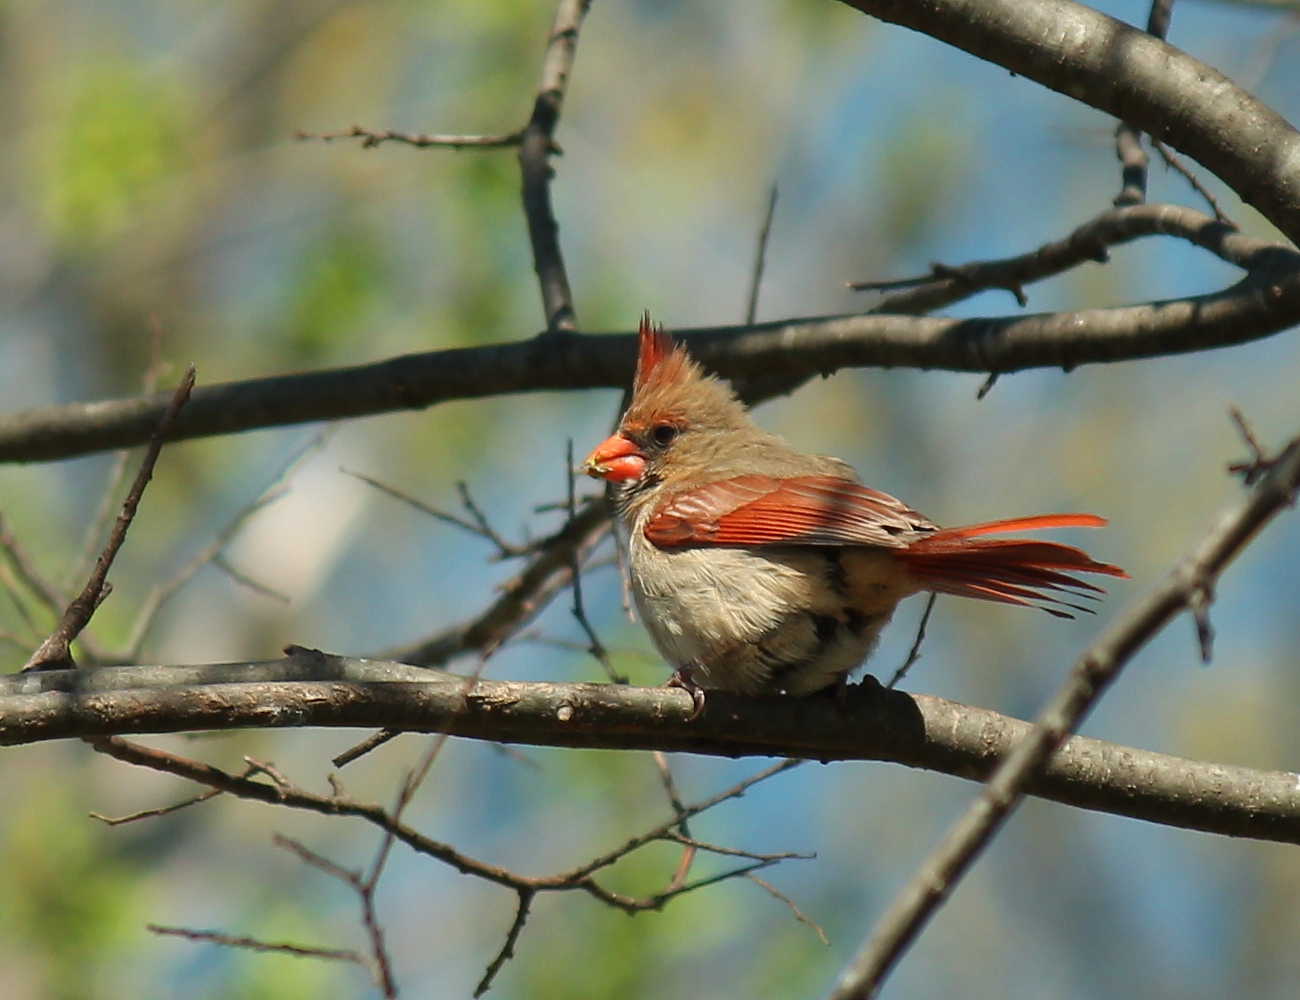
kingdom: Animalia
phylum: Chordata
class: Aves
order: Passeriformes
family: Cardinalidae
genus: Cardinalis
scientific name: Cardinalis cardinalis
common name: Northern cardinal
